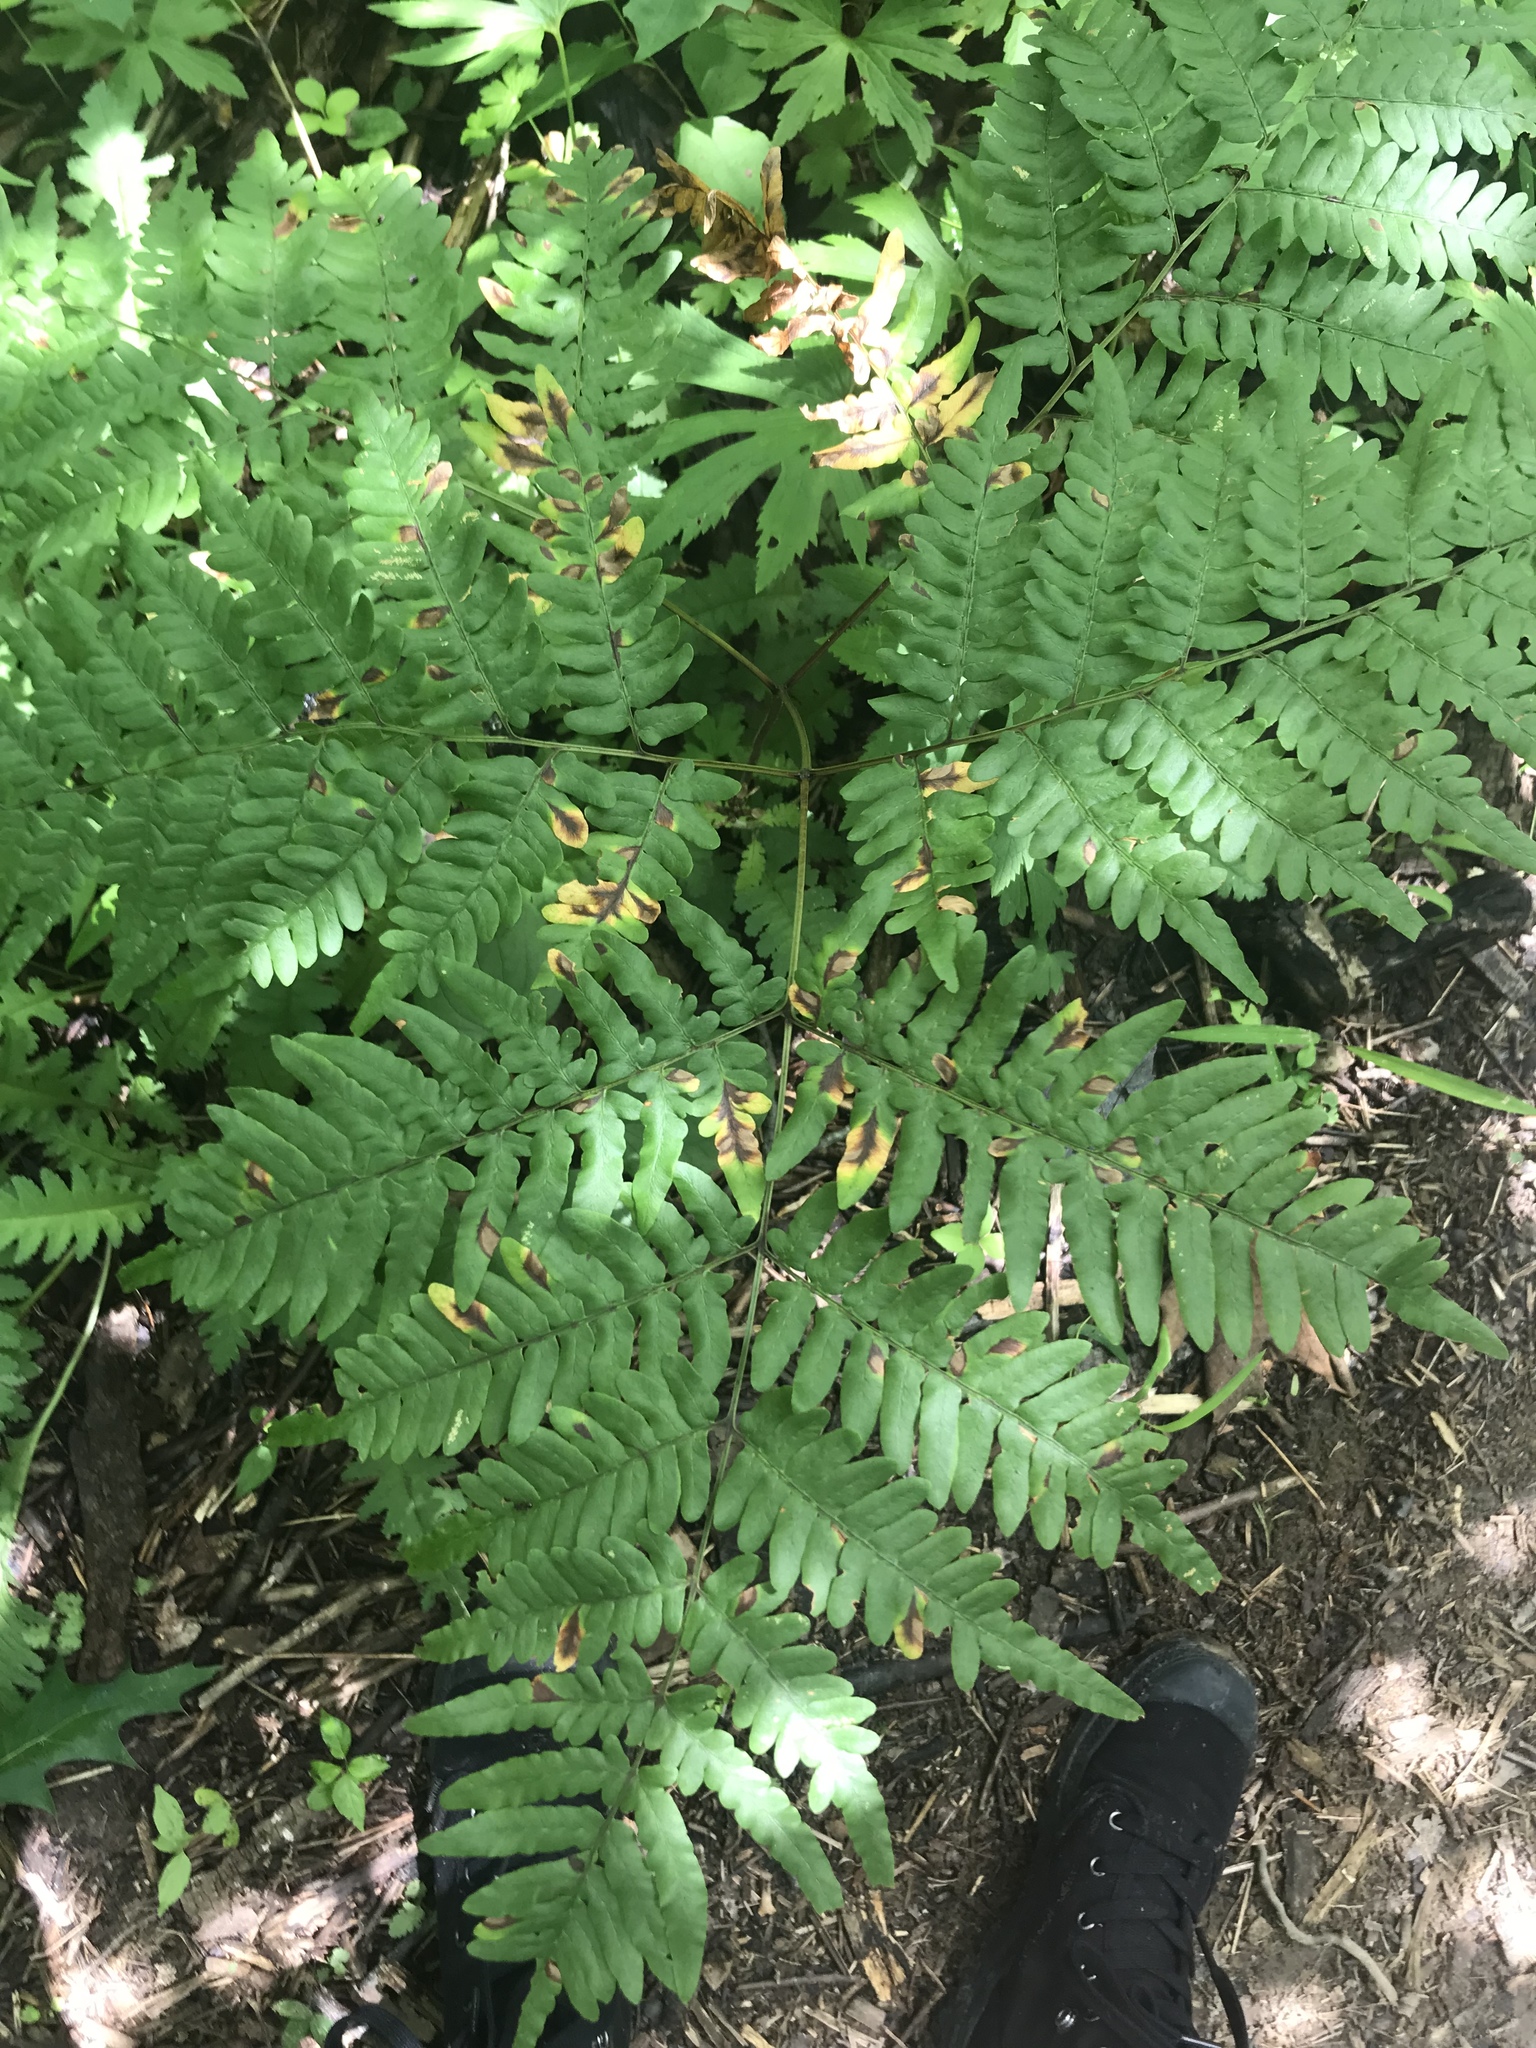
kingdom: Plantae
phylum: Tracheophyta
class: Polypodiopsida
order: Polypodiales
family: Dennstaedtiaceae
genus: Pteridium
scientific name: Pteridium aquilinum
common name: Bracken
